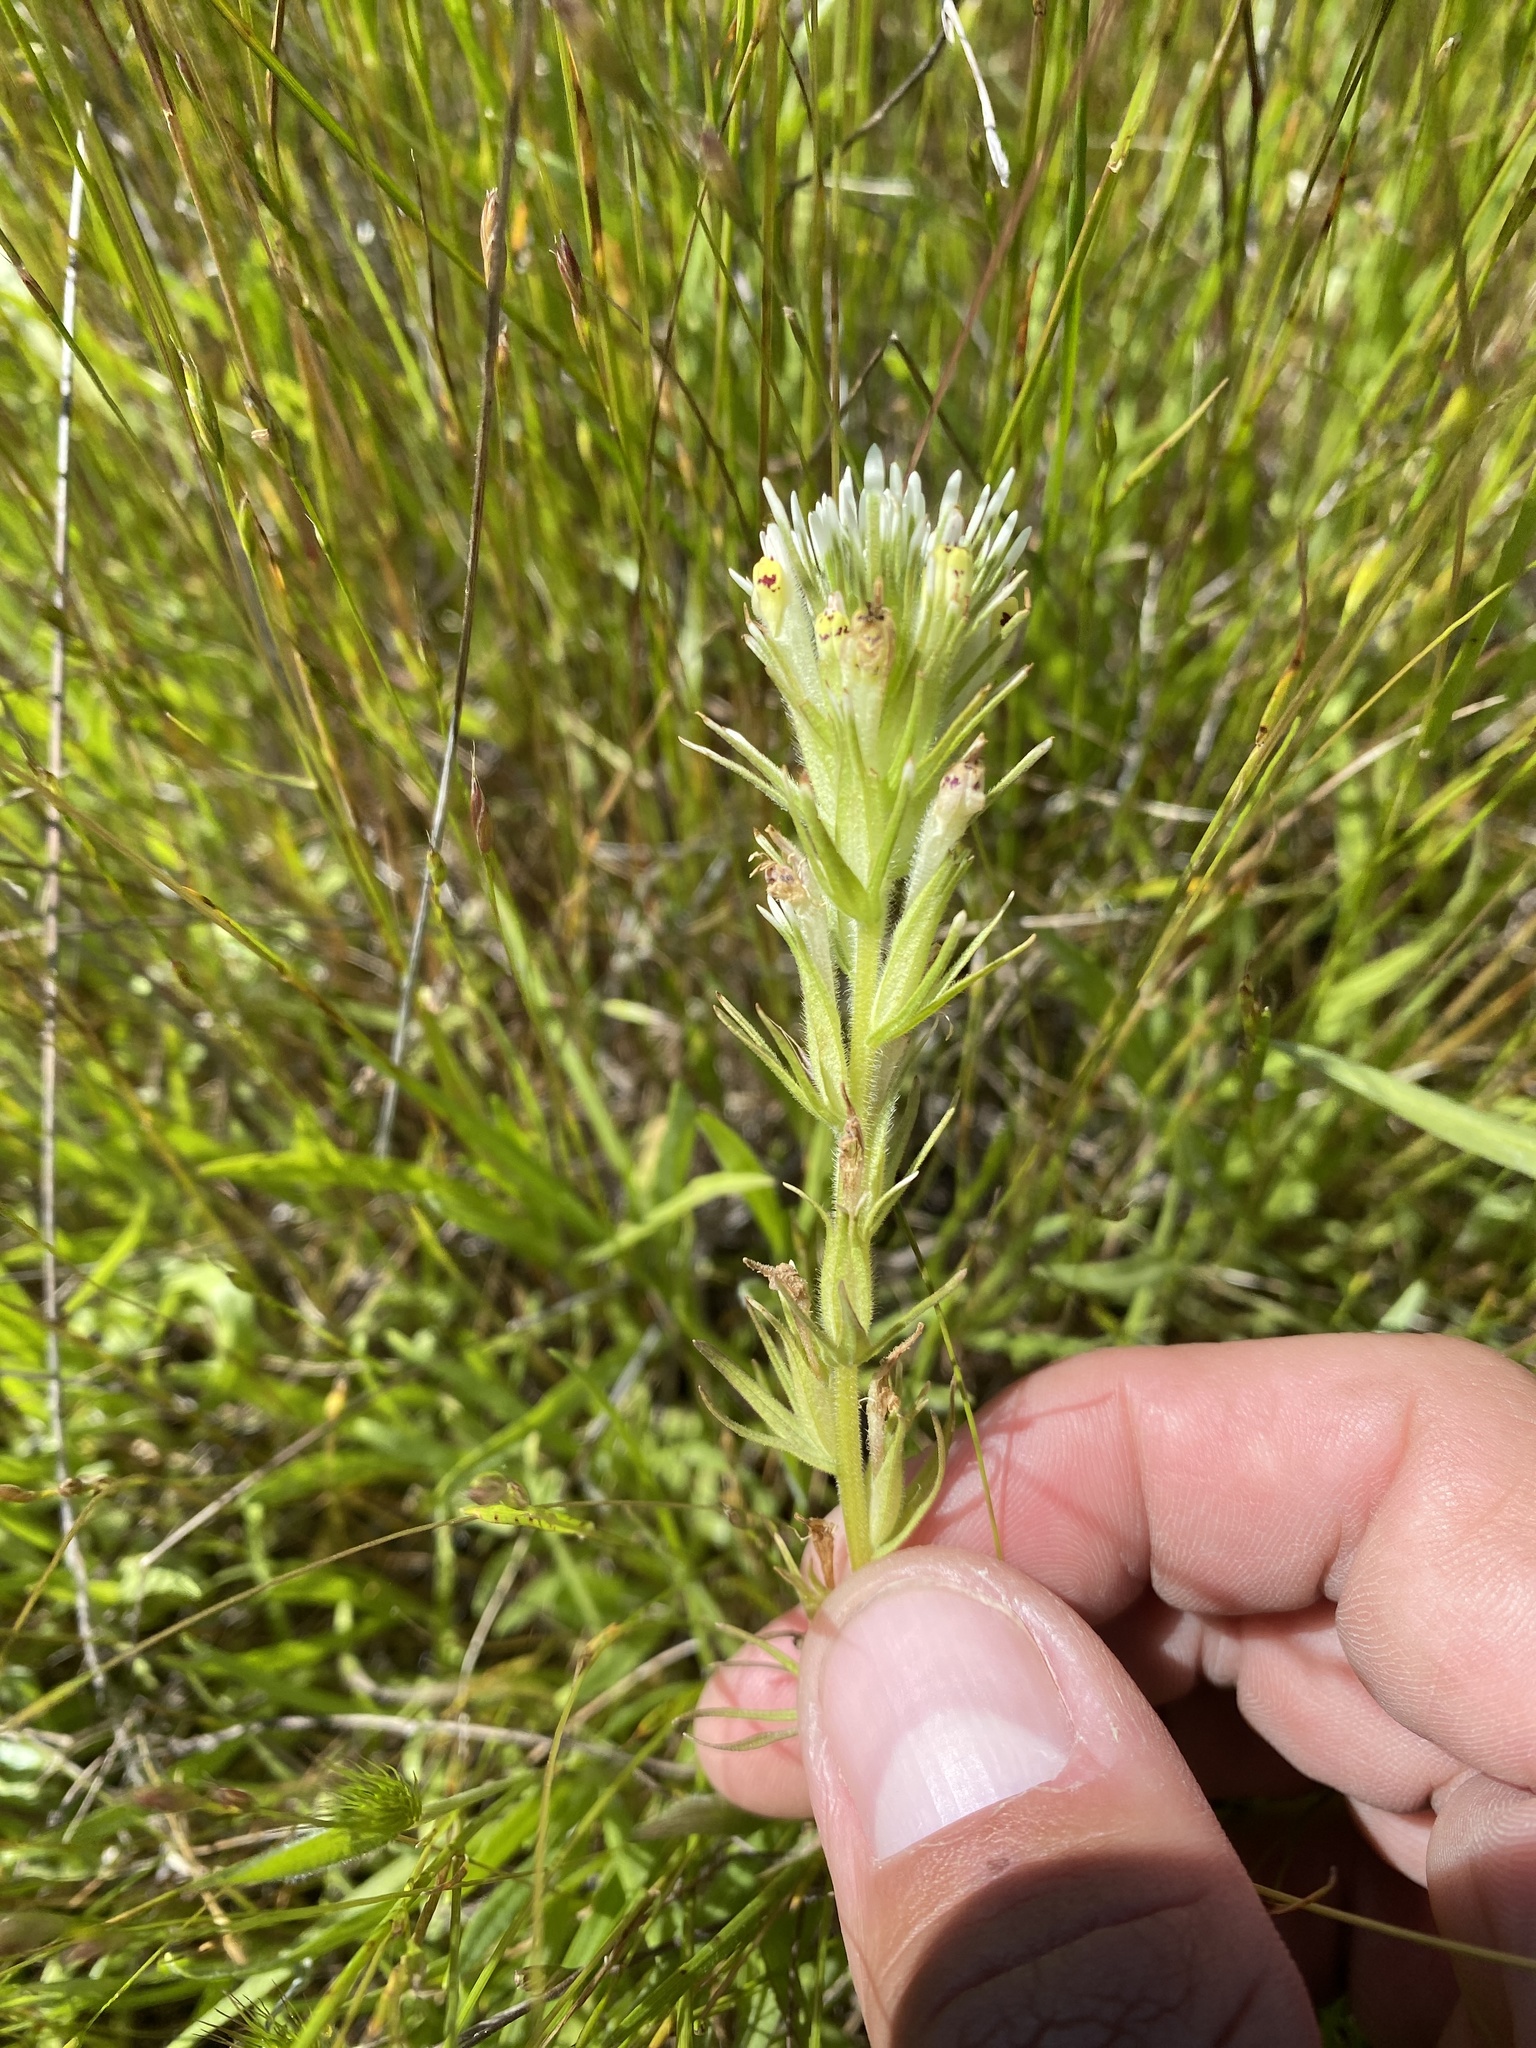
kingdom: Plantae
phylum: Tracheophyta
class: Magnoliopsida
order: Lamiales
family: Orobanchaceae
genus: Castilleja
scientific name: Castilleja densiflora
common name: Dense-flower indian paintbrush
